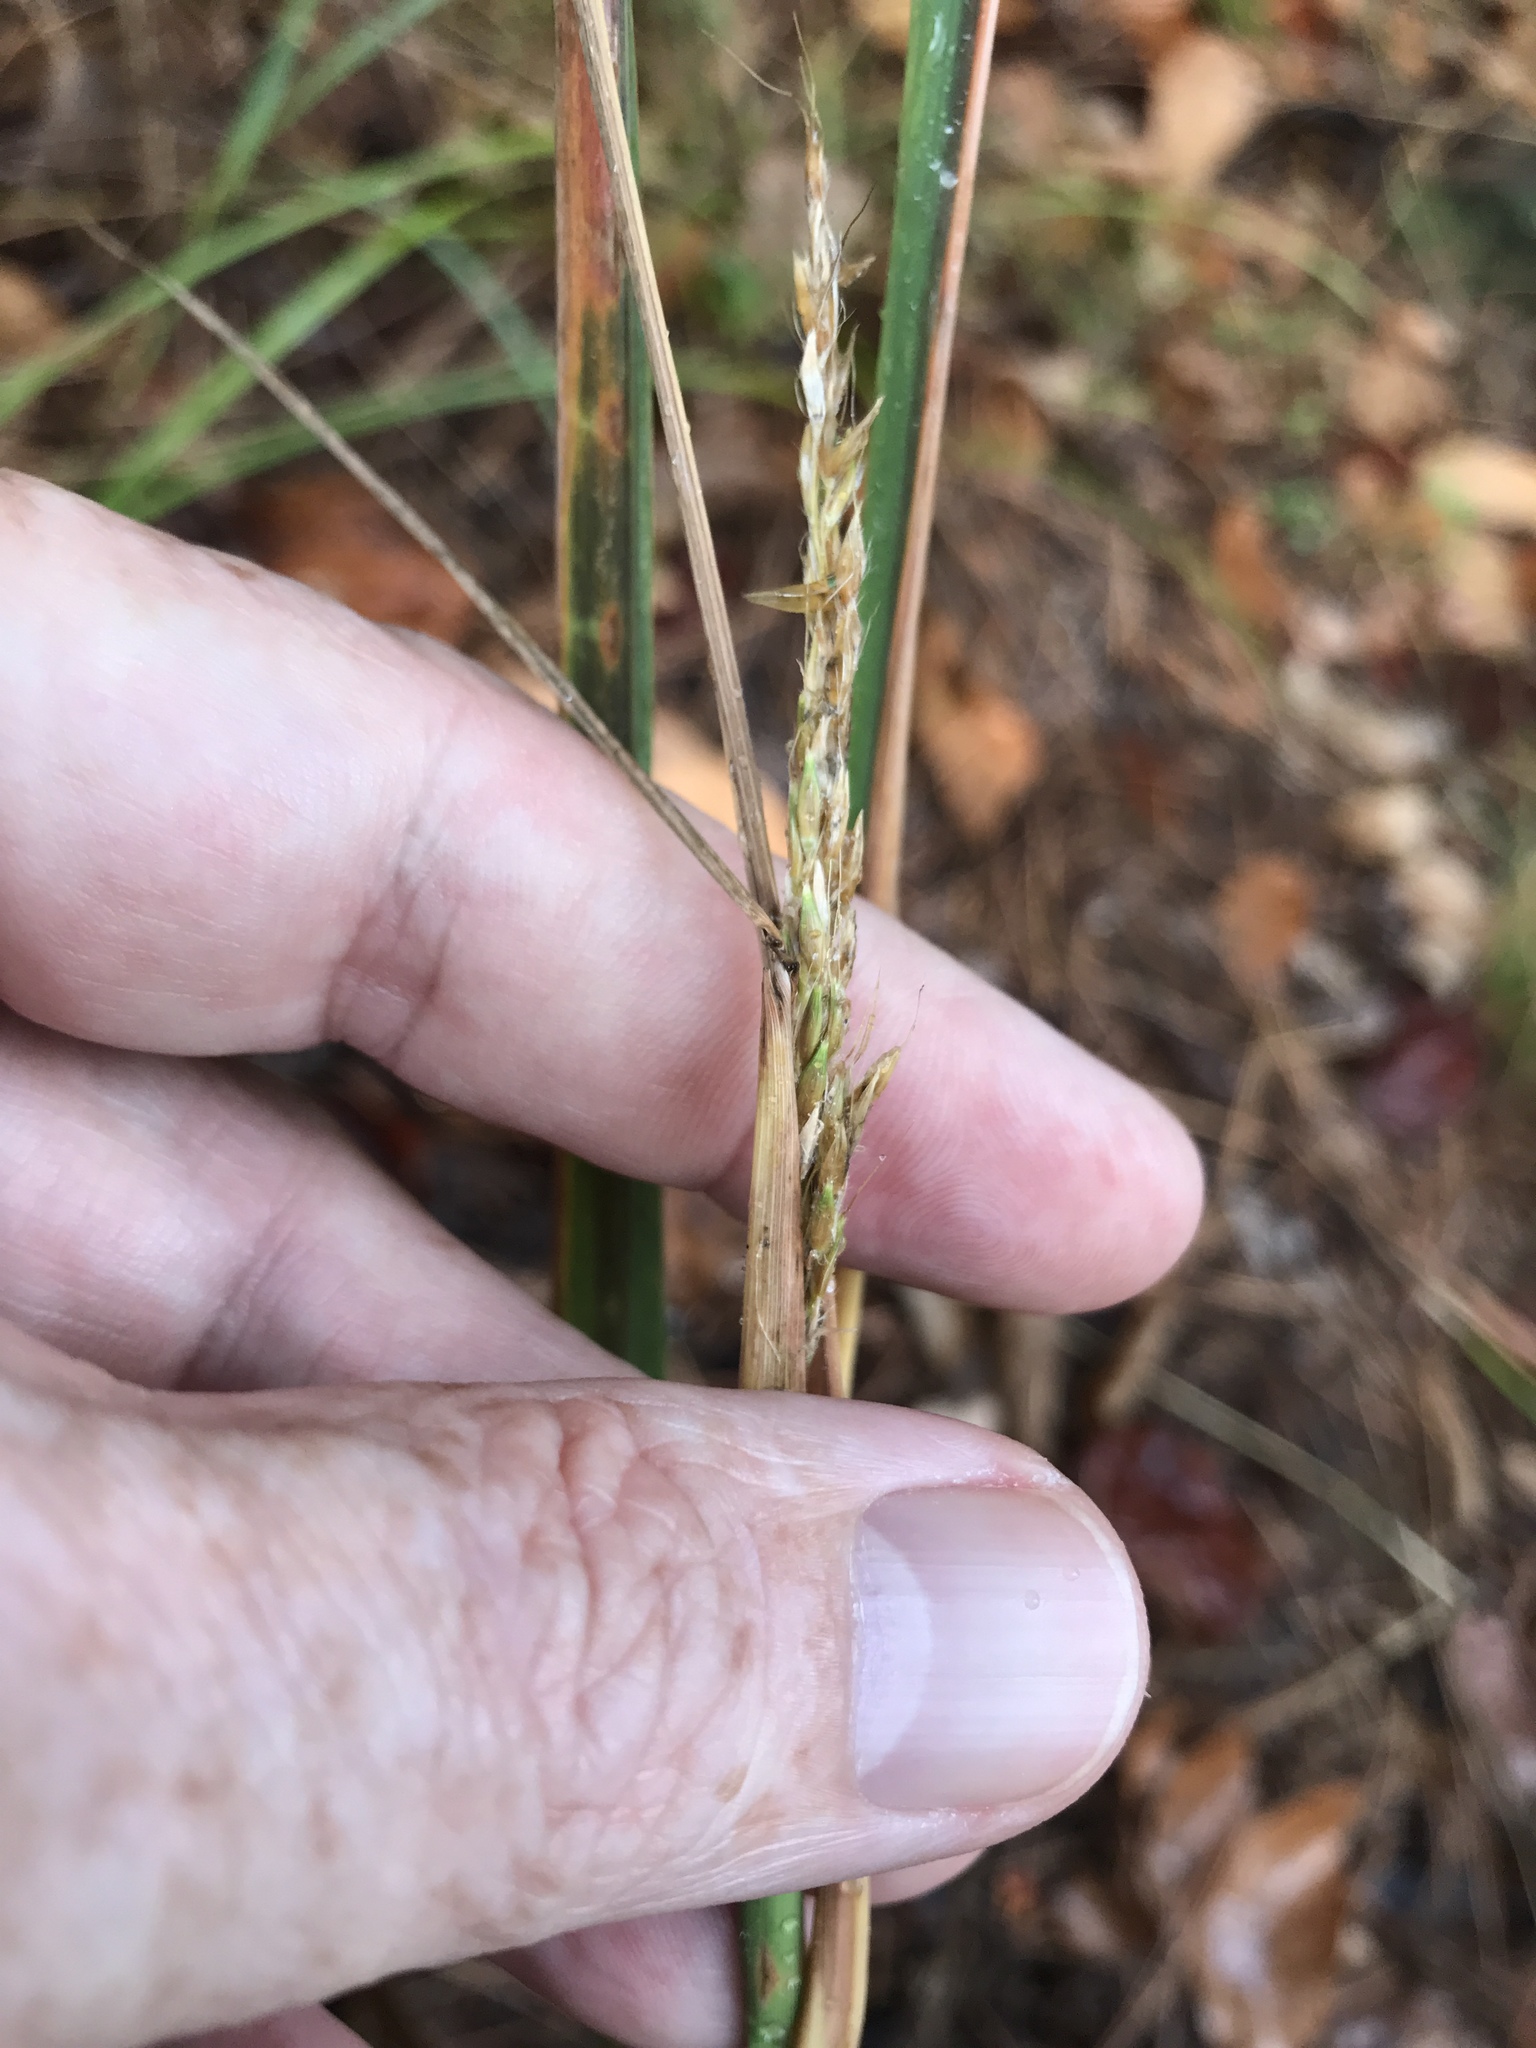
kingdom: Plantae
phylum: Tracheophyta
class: Liliopsida
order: Poales
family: Poaceae
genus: Sorghastrum
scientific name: Sorghastrum nutans
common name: Indian grass
